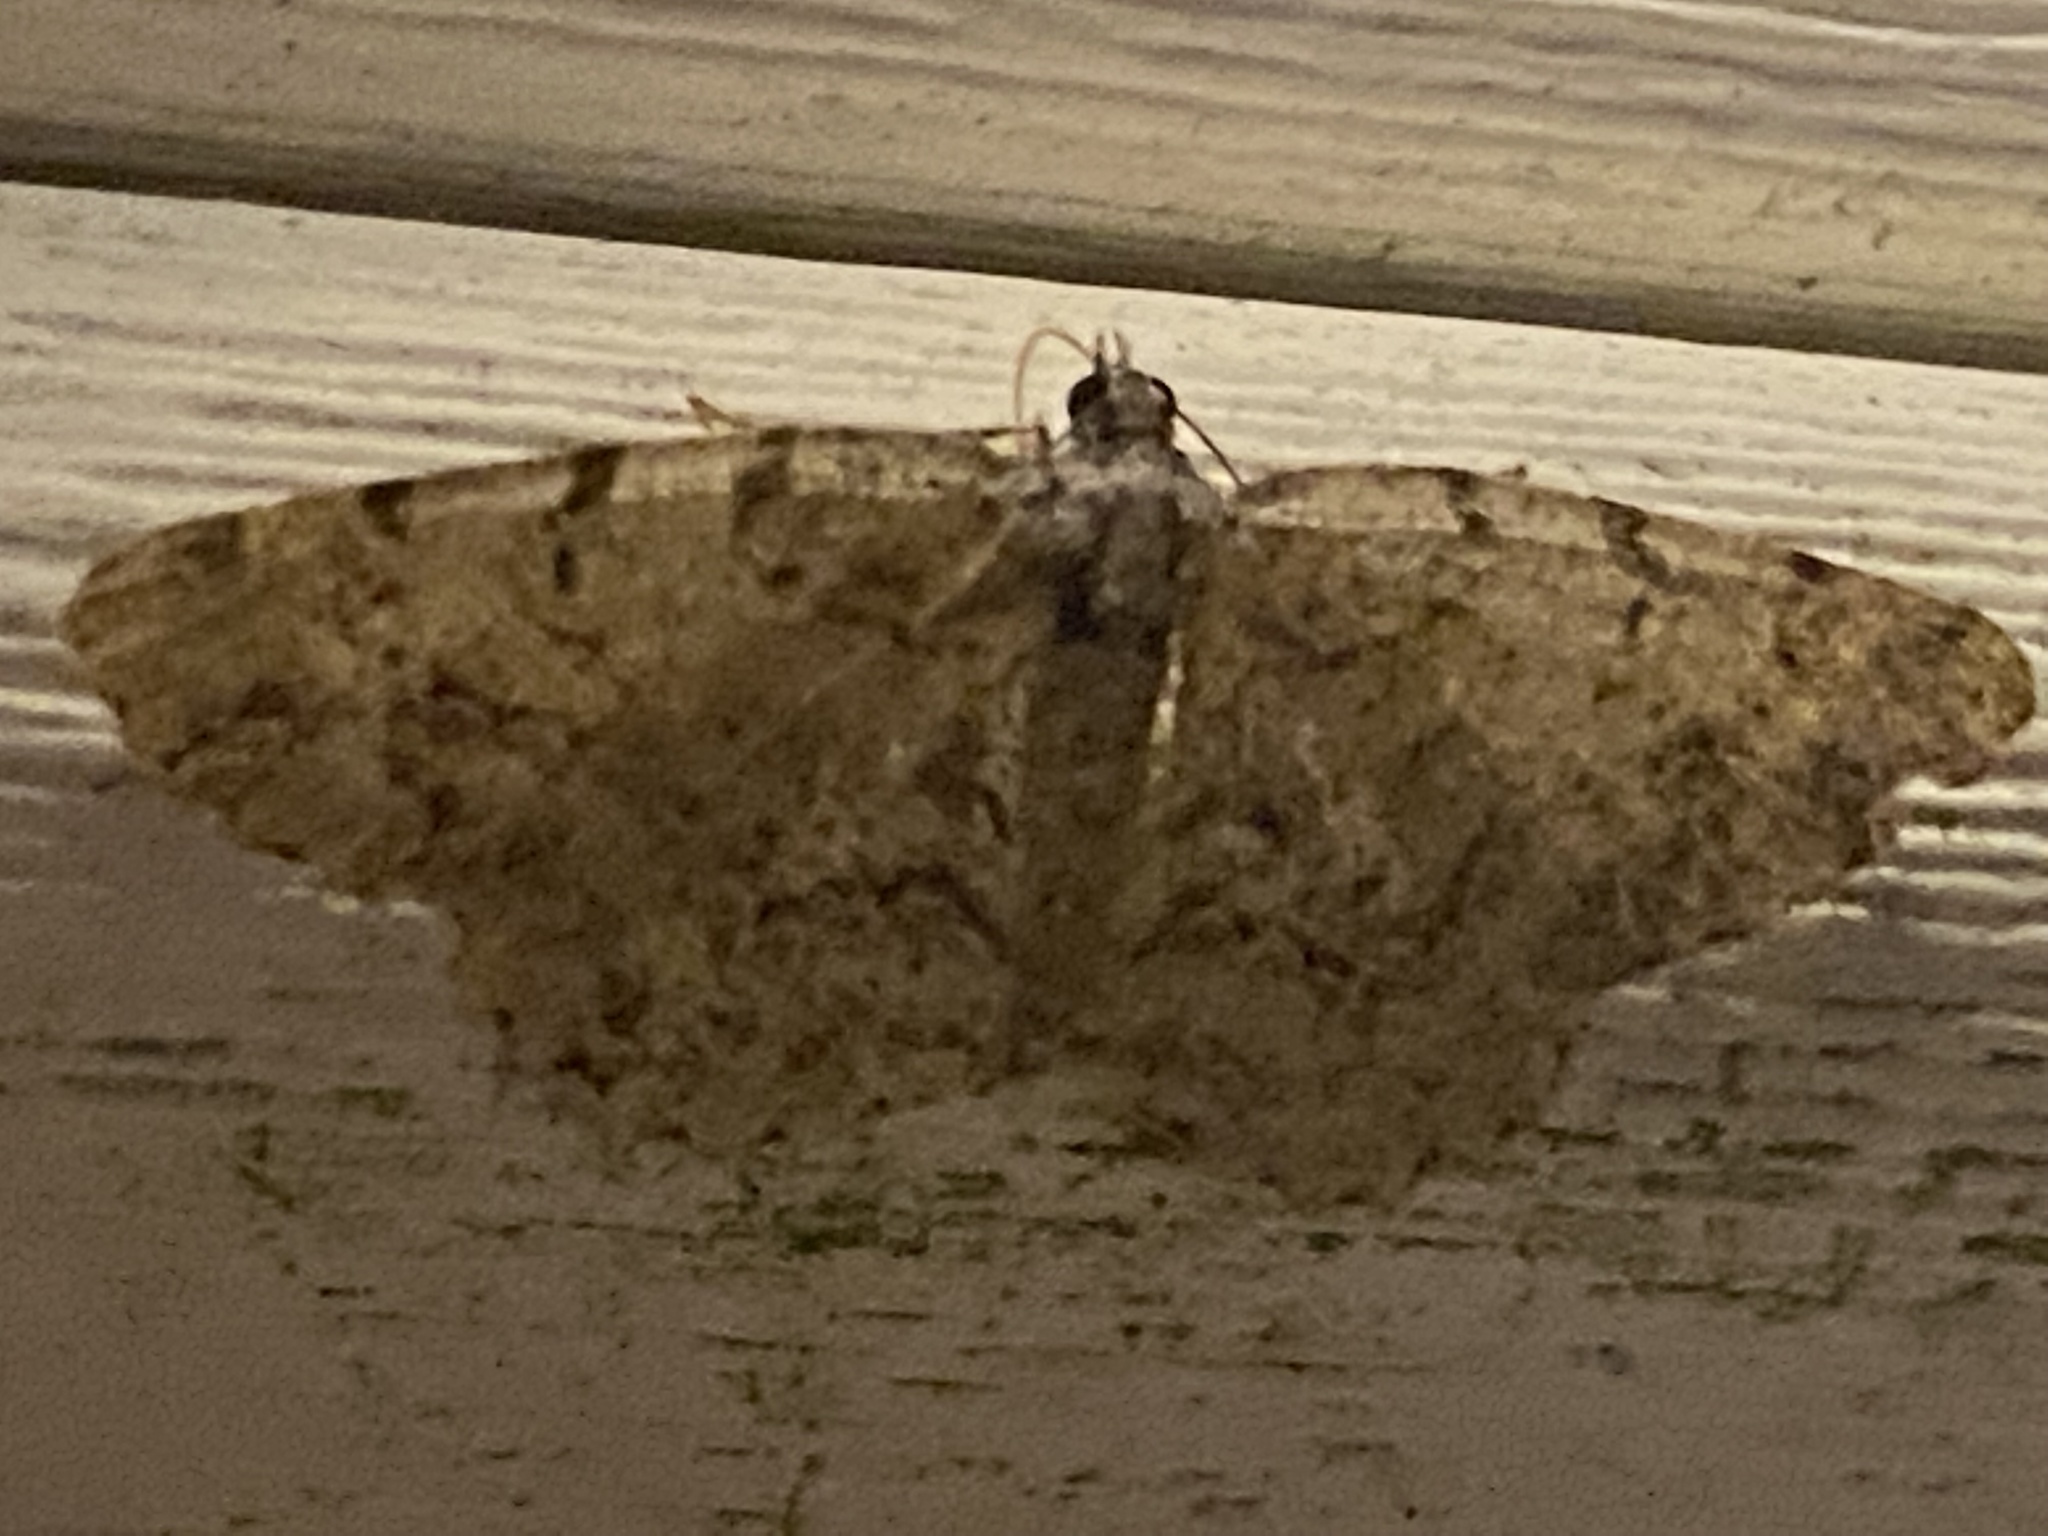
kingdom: Animalia
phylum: Arthropoda
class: Insecta
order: Lepidoptera
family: Geometridae
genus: Protoboarmia
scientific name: Protoboarmia porcelaria
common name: Porcelain gray
